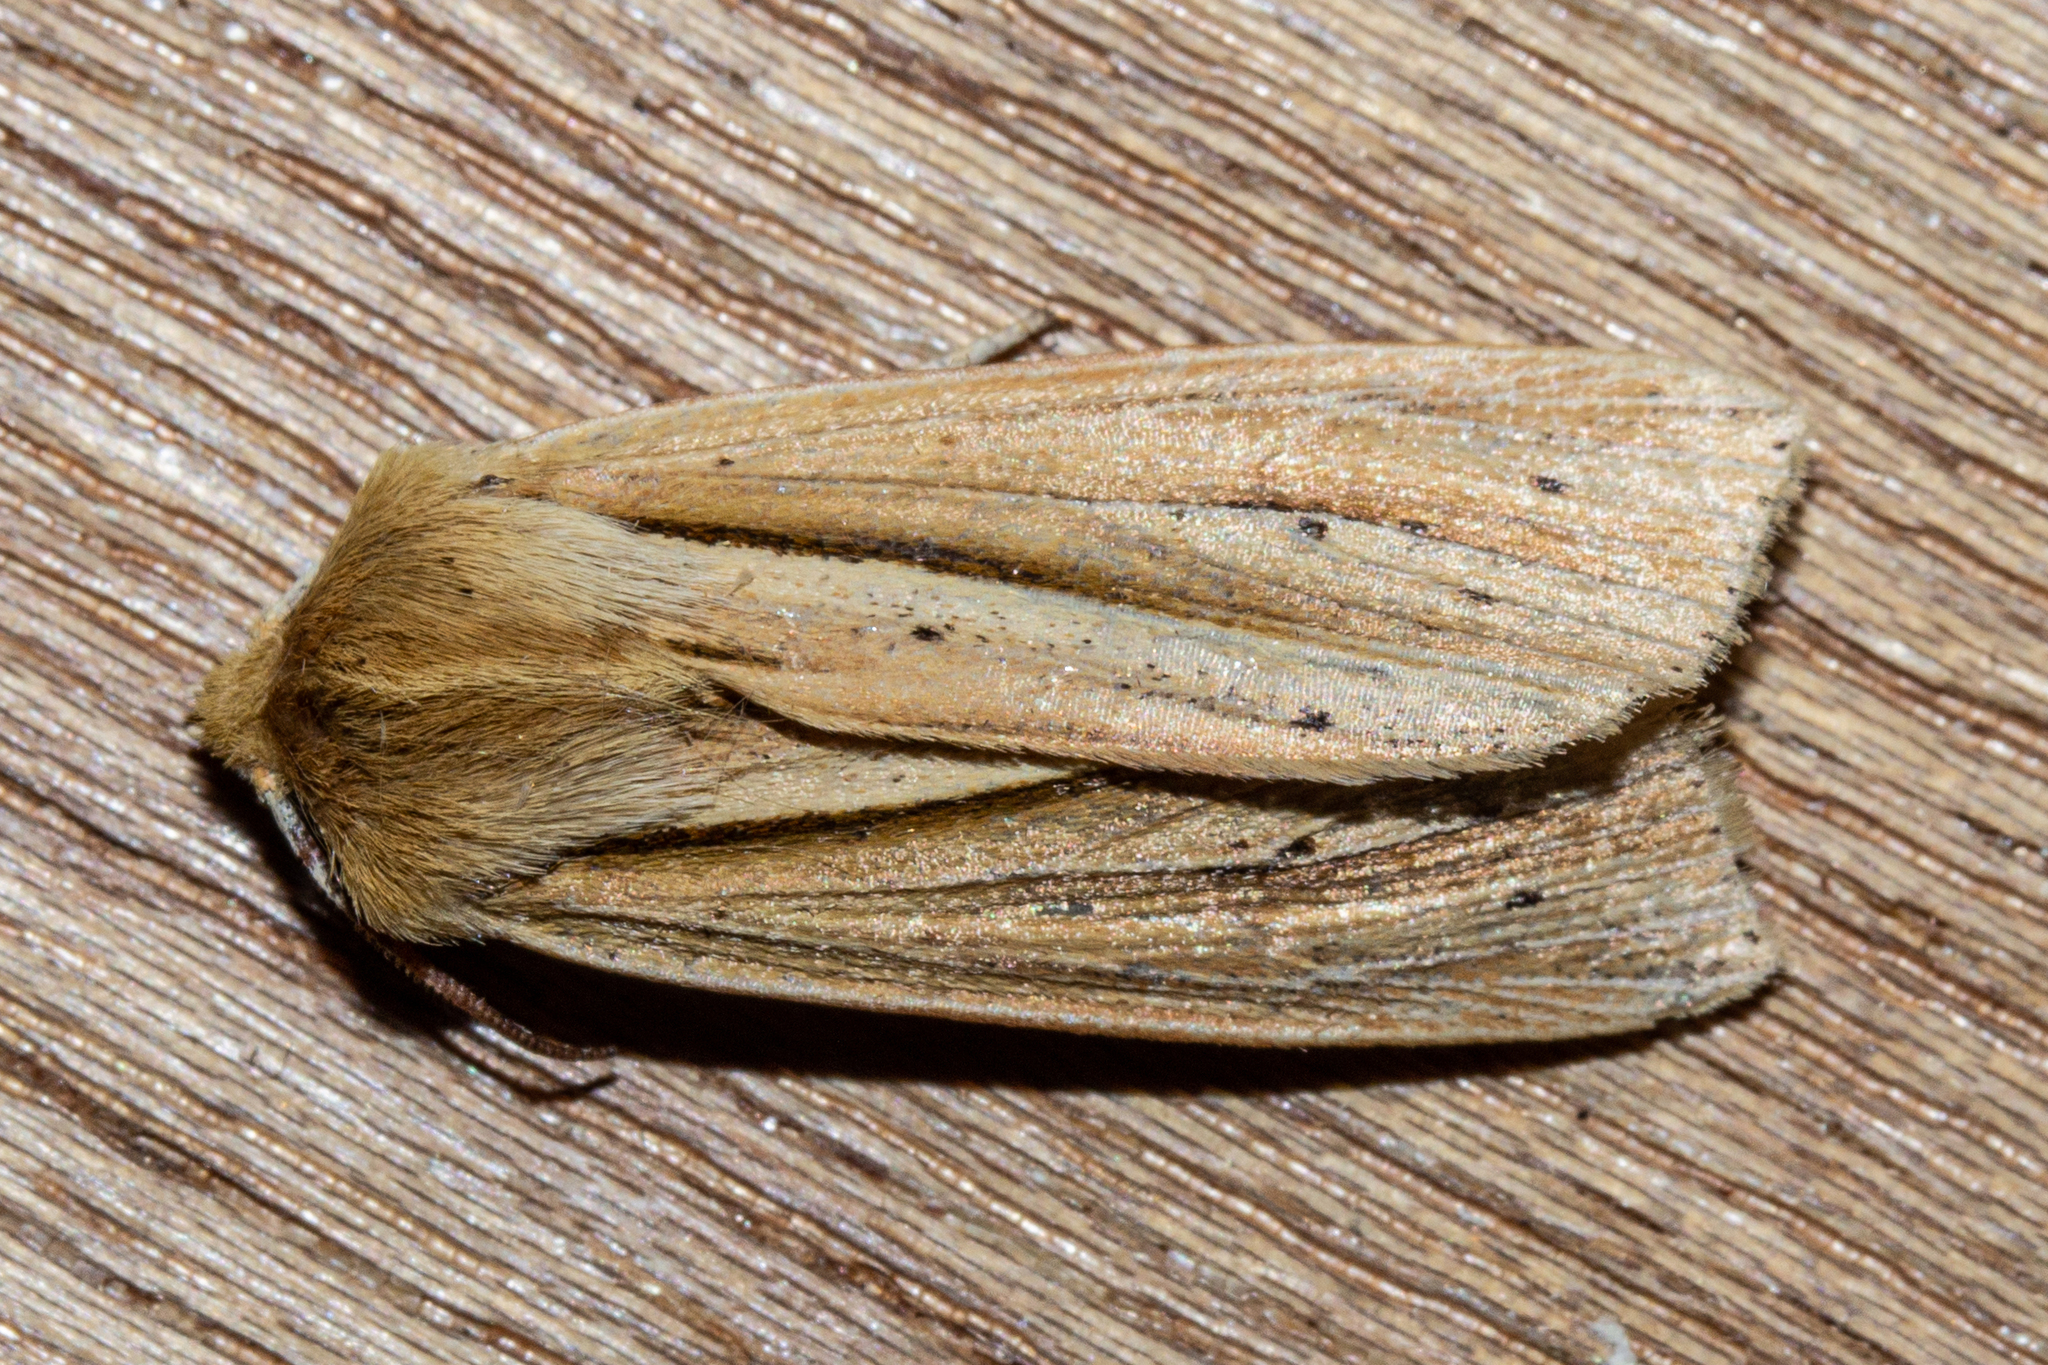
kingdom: Animalia
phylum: Arthropoda
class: Insecta
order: Lepidoptera
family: Noctuidae
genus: Ichneutica
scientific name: Ichneutica semivittata
